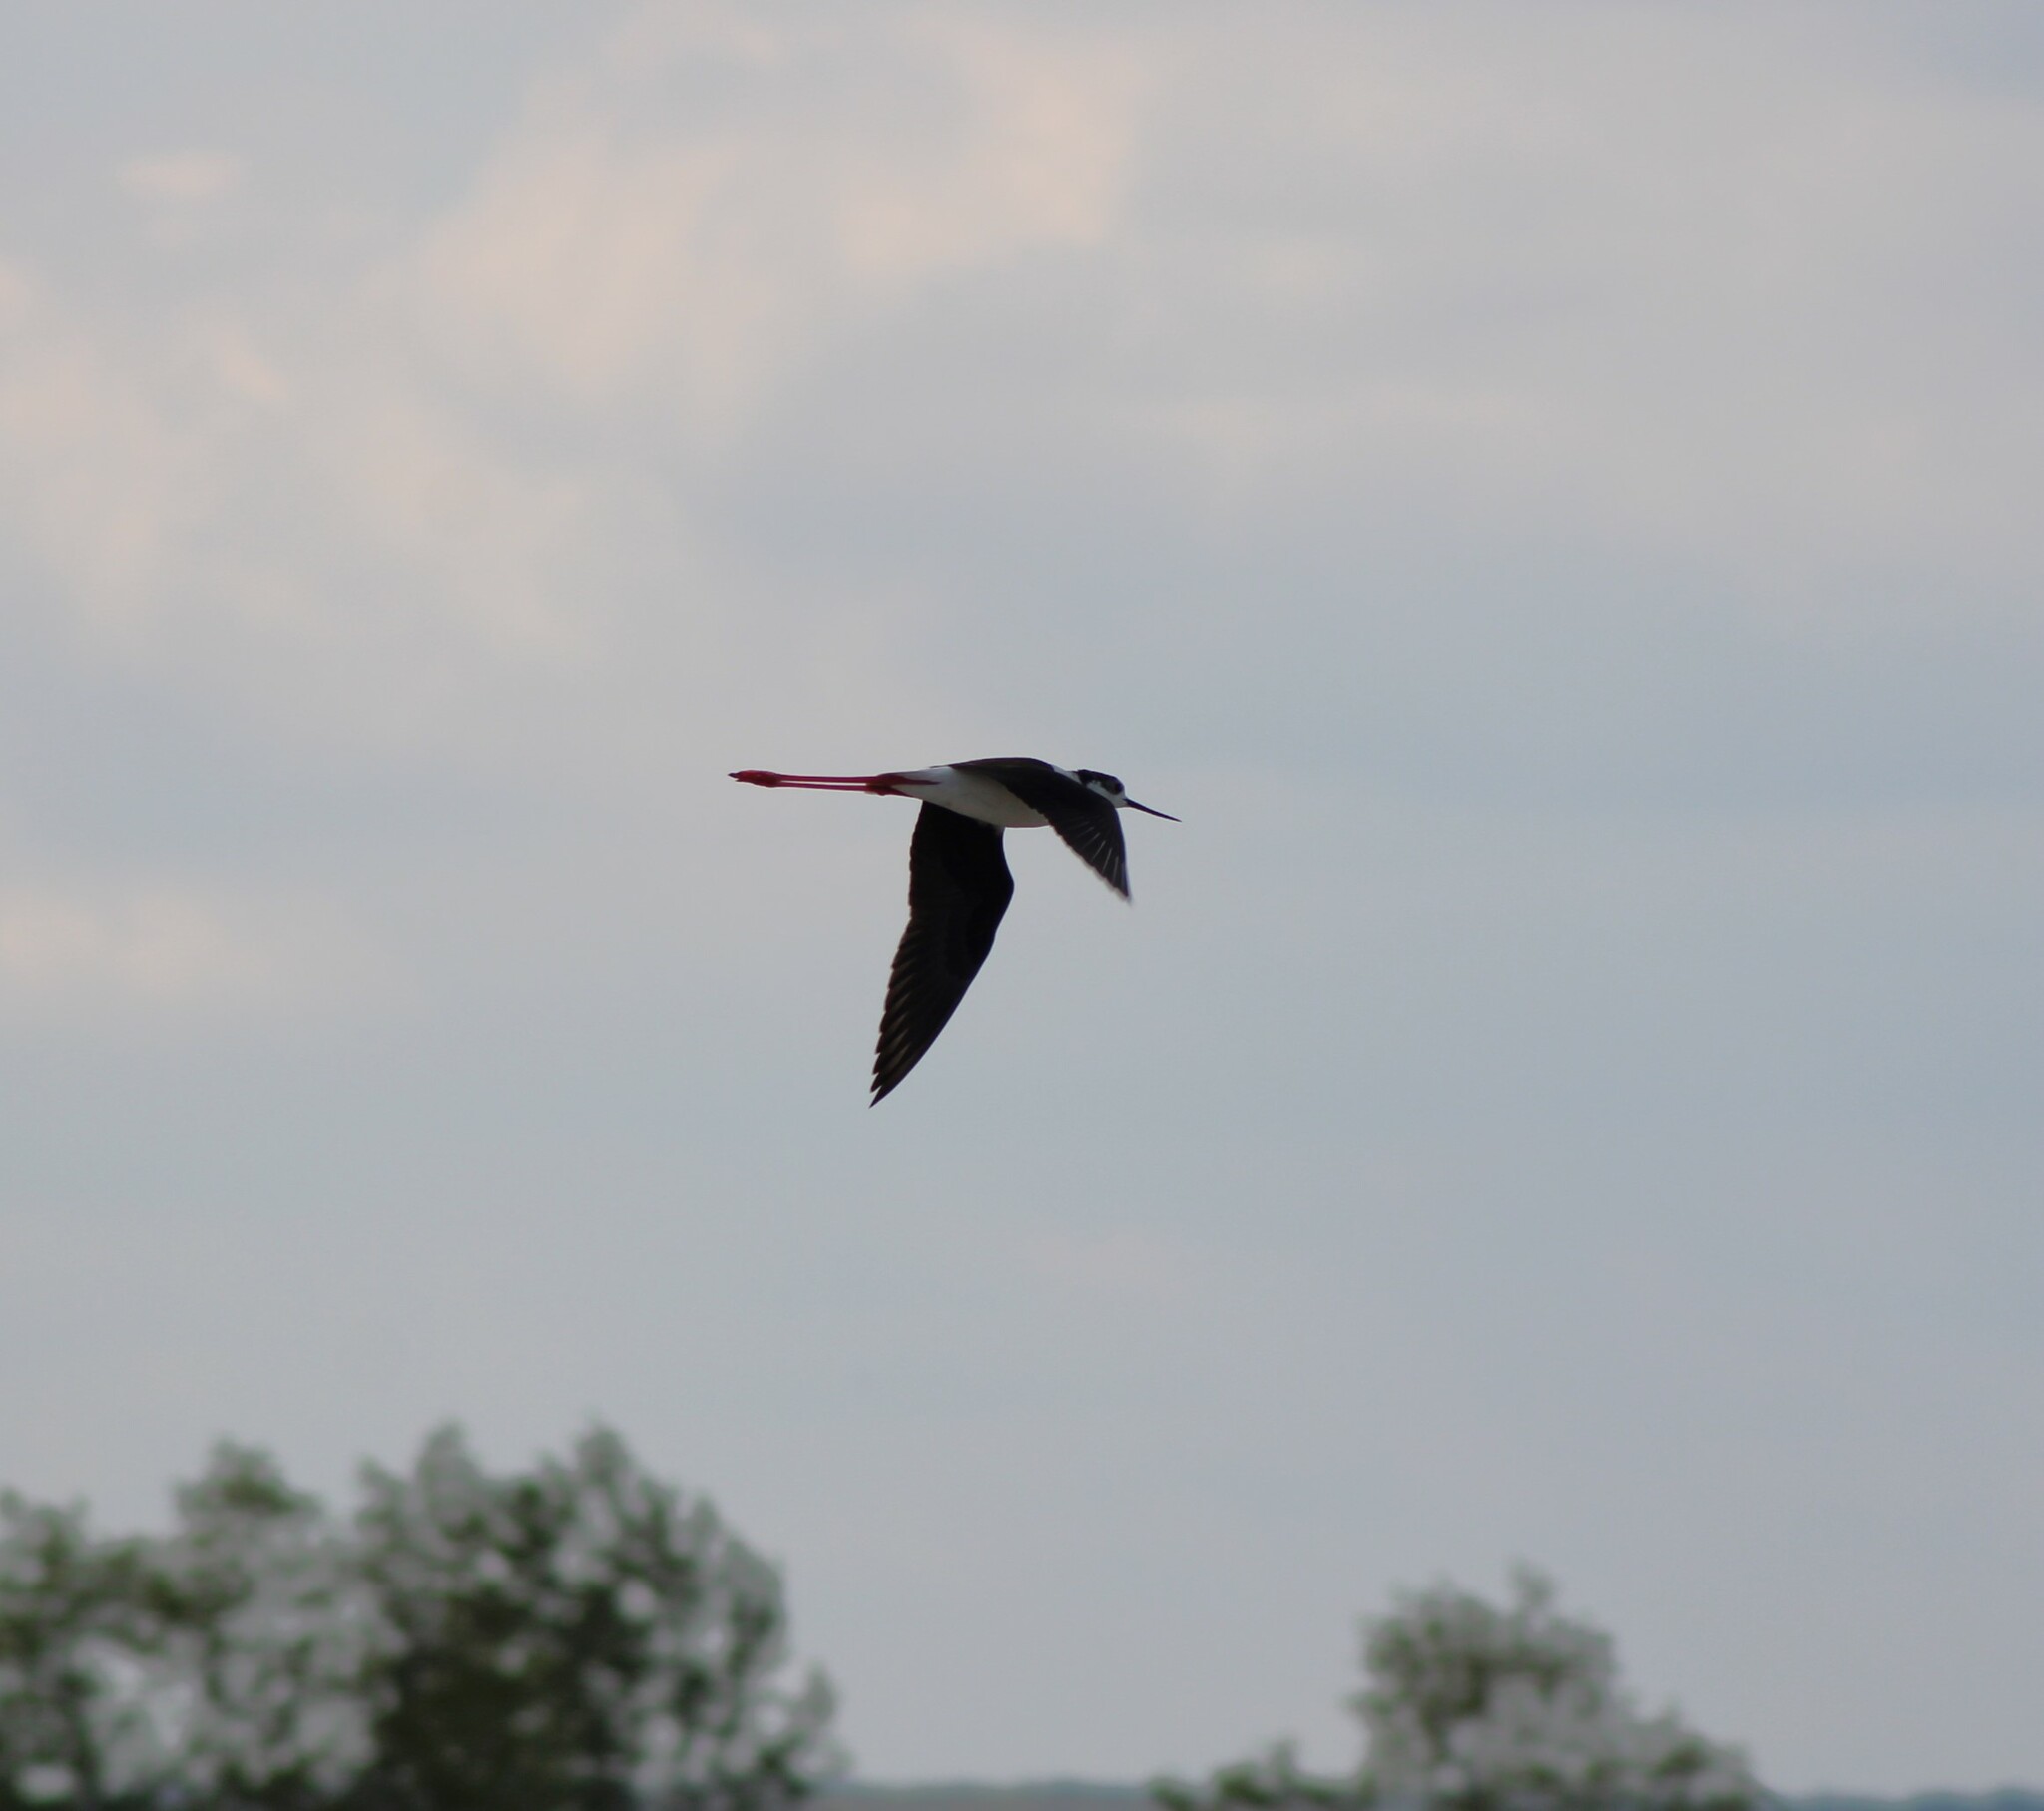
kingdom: Animalia
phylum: Chordata
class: Aves
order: Charadriiformes
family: Recurvirostridae
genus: Himantopus
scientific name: Himantopus himantopus
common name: Black-winged stilt
